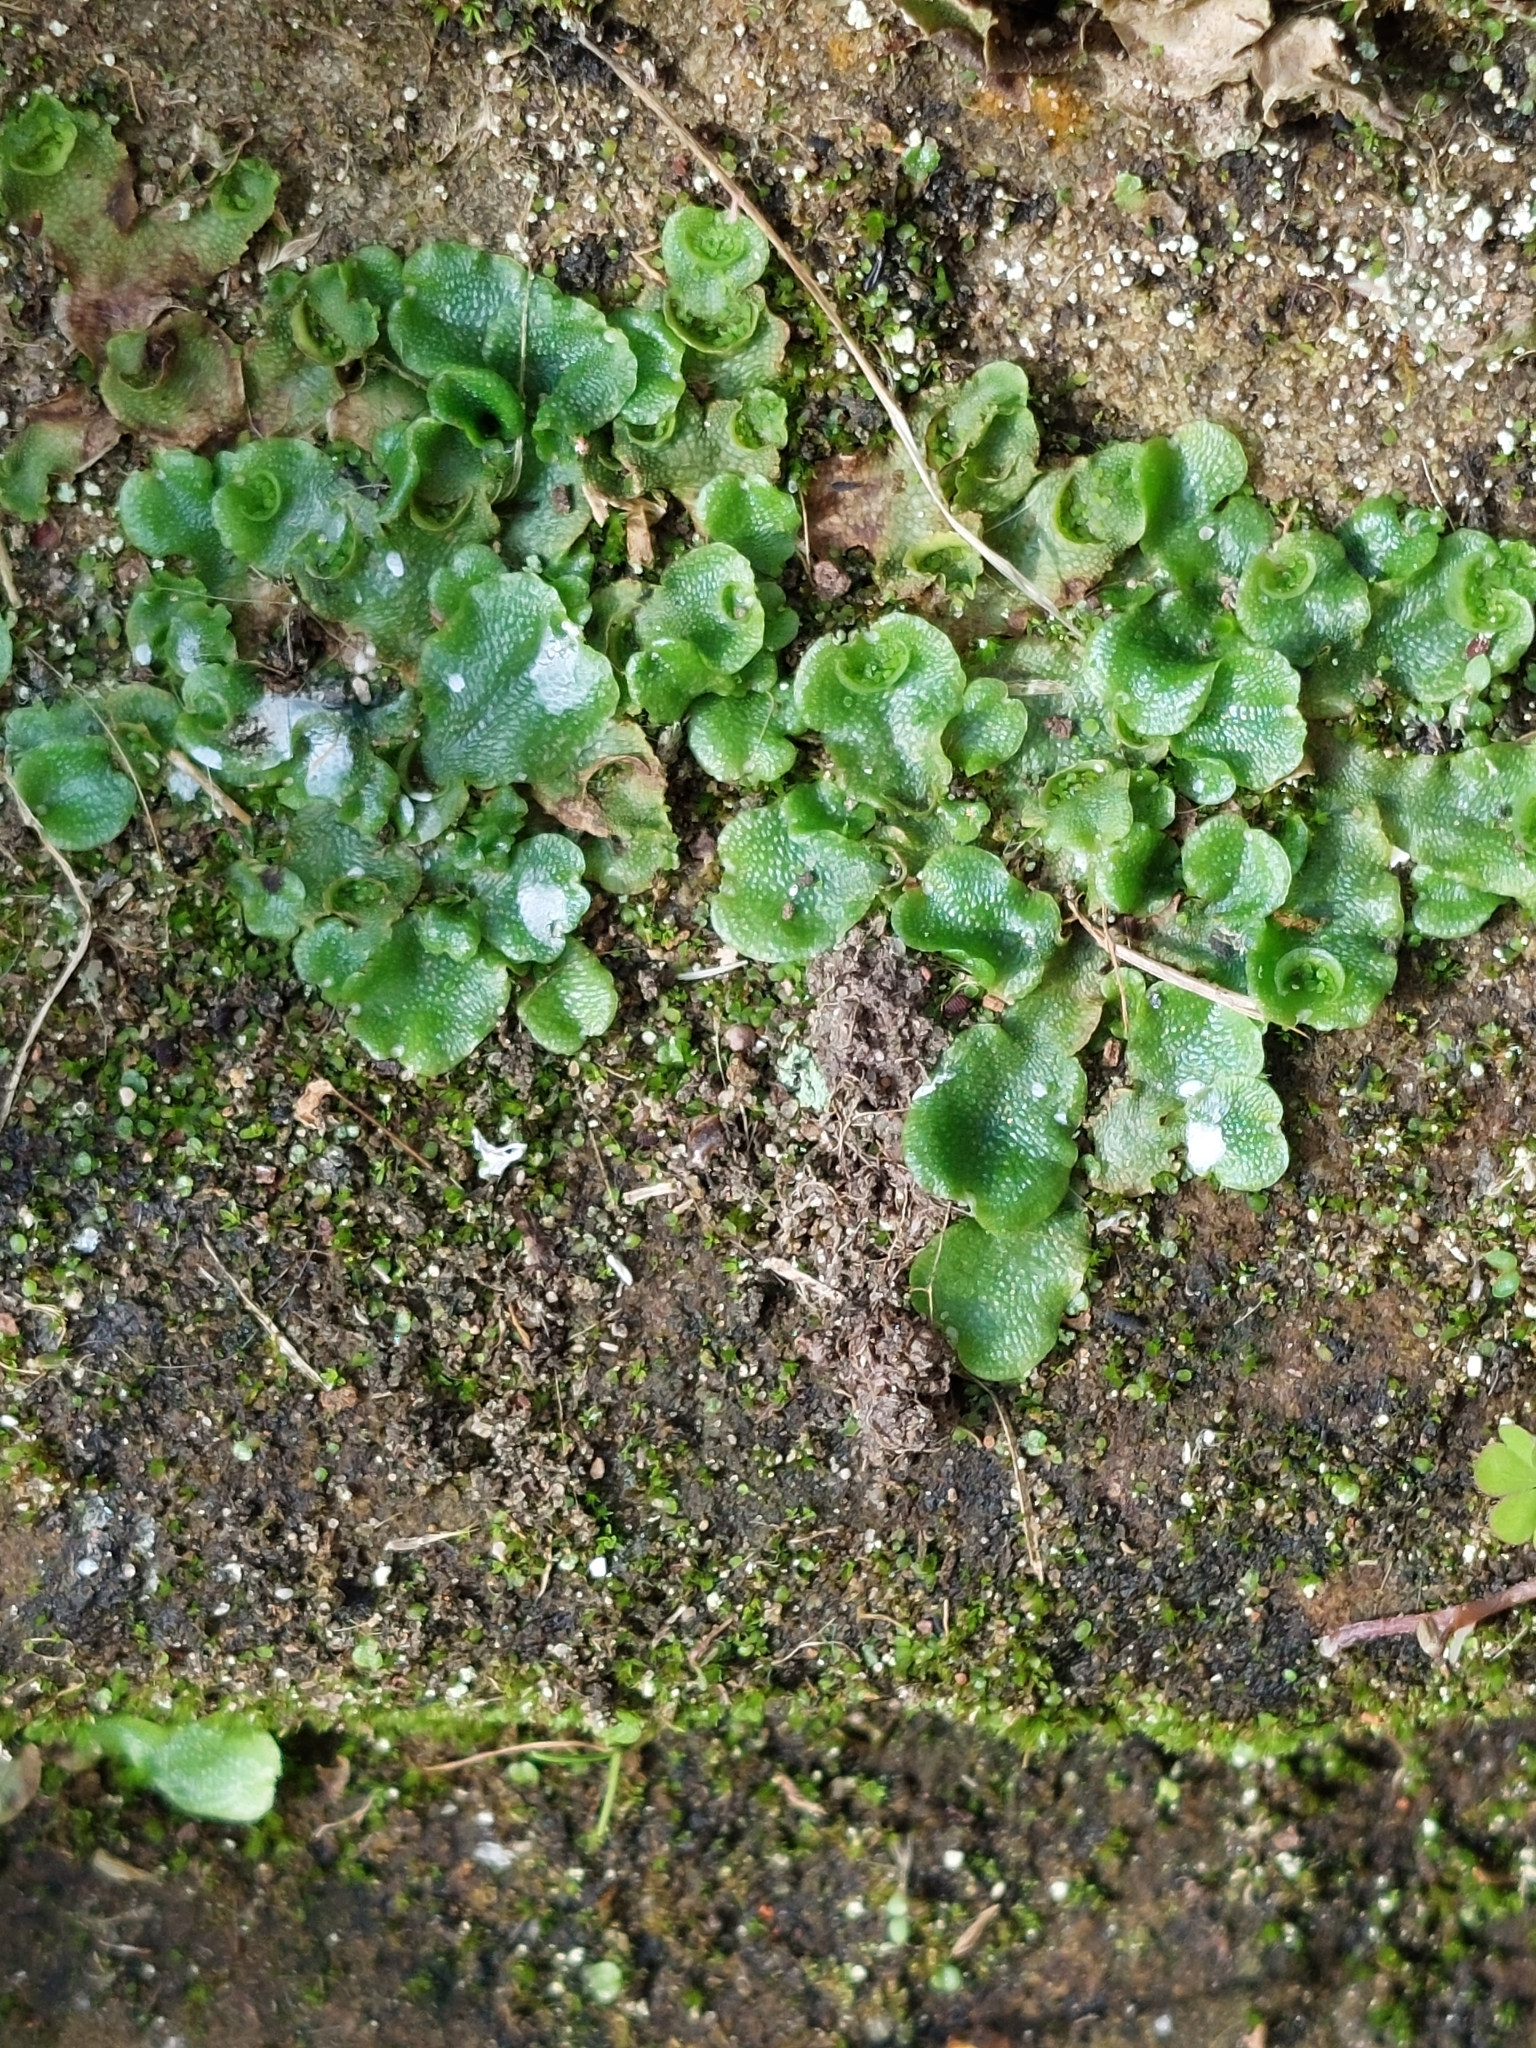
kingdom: Plantae
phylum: Marchantiophyta
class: Marchantiopsida
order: Lunulariales
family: Lunulariaceae
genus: Lunularia
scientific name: Lunularia cruciata
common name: Crescent-cup liverwort
